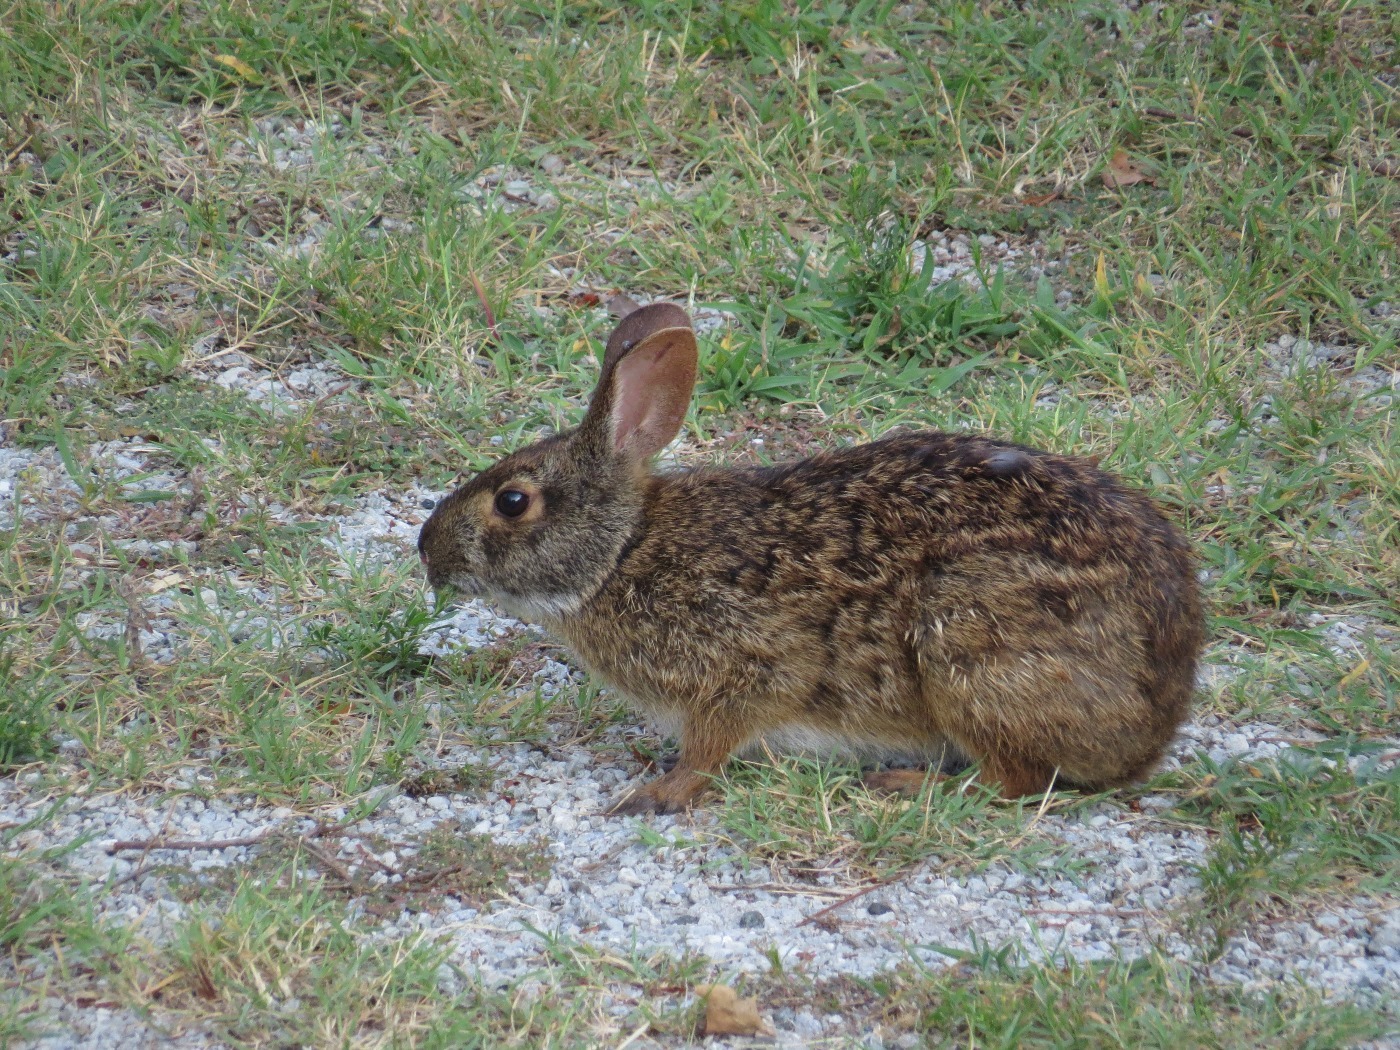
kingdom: Animalia
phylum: Chordata
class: Mammalia
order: Lagomorpha
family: Leporidae
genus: Sylvilagus
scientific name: Sylvilagus palustris
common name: Marsh rabbit
